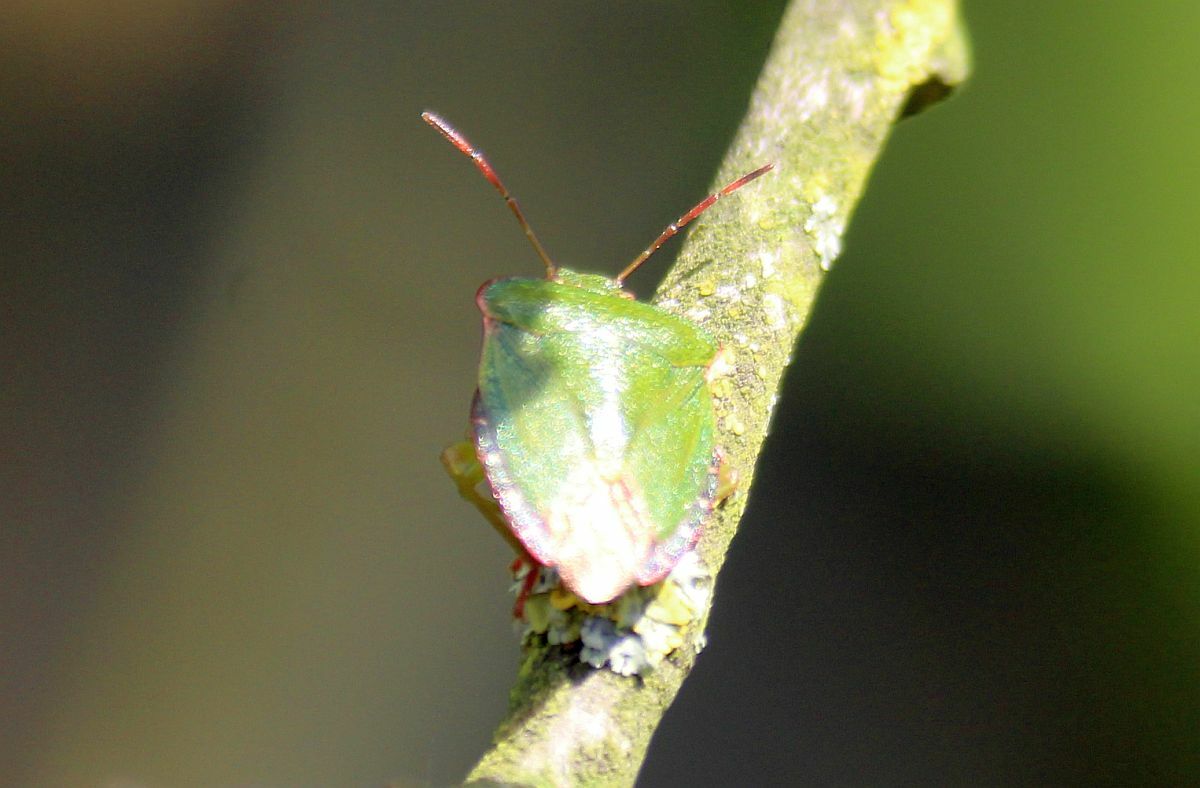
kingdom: Animalia
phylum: Arthropoda
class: Insecta
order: Hemiptera
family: Pentatomidae
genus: Palomena
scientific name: Palomena prasina
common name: Green shieldbug
